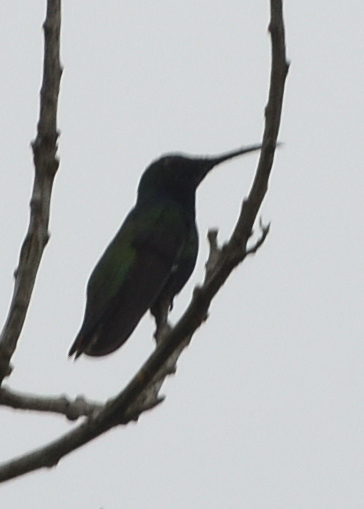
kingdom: Animalia
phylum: Chordata
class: Aves
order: Apodiformes
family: Trochilidae
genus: Anthracothorax
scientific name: Anthracothorax nigricollis
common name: Black-throated mango
